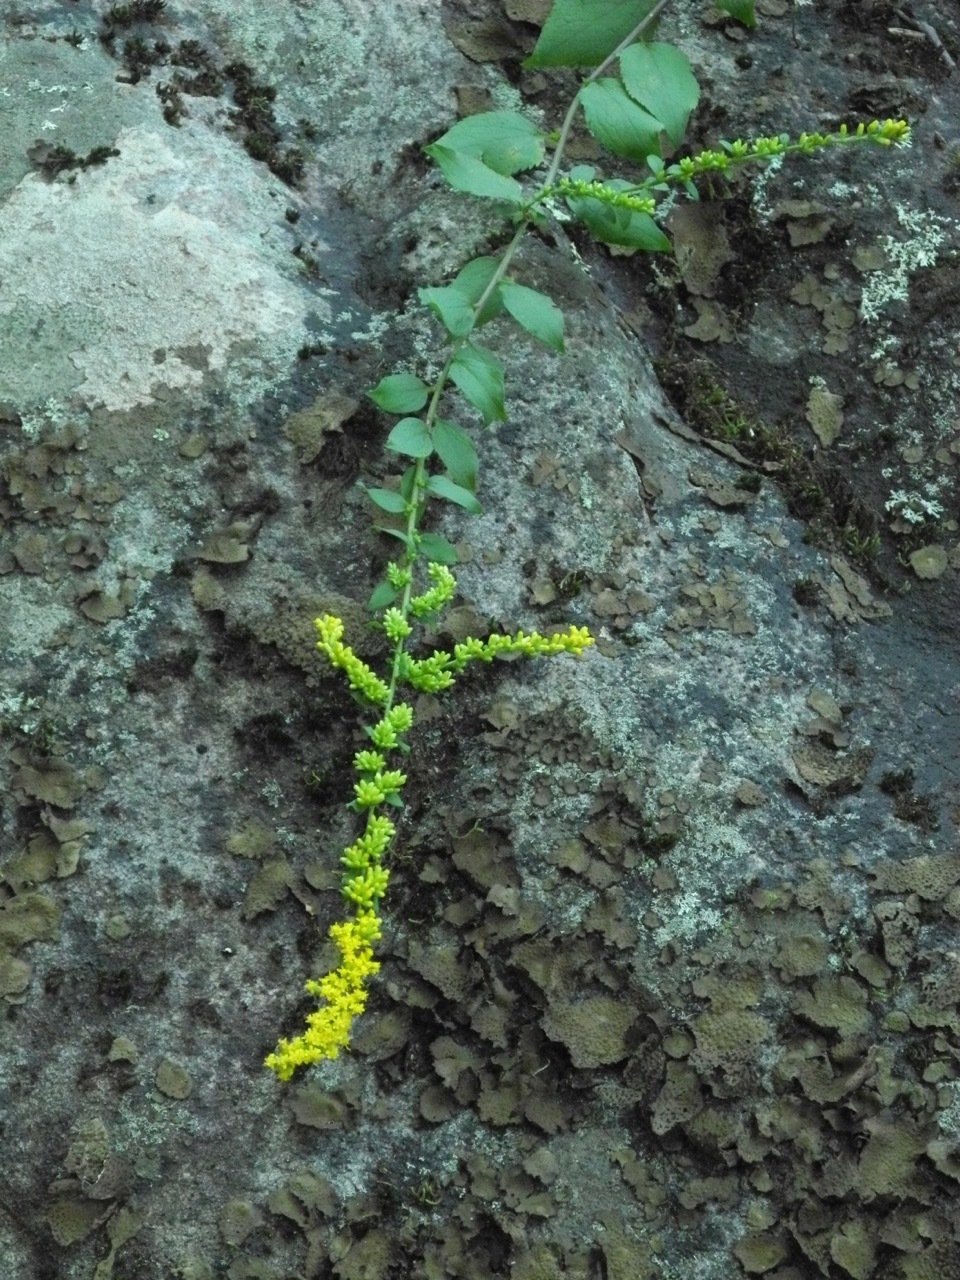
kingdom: Plantae
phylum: Tracheophyta
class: Magnoliopsida
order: Asterales
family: Asteraceae
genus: Solidago
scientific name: Solidago sphacelata
